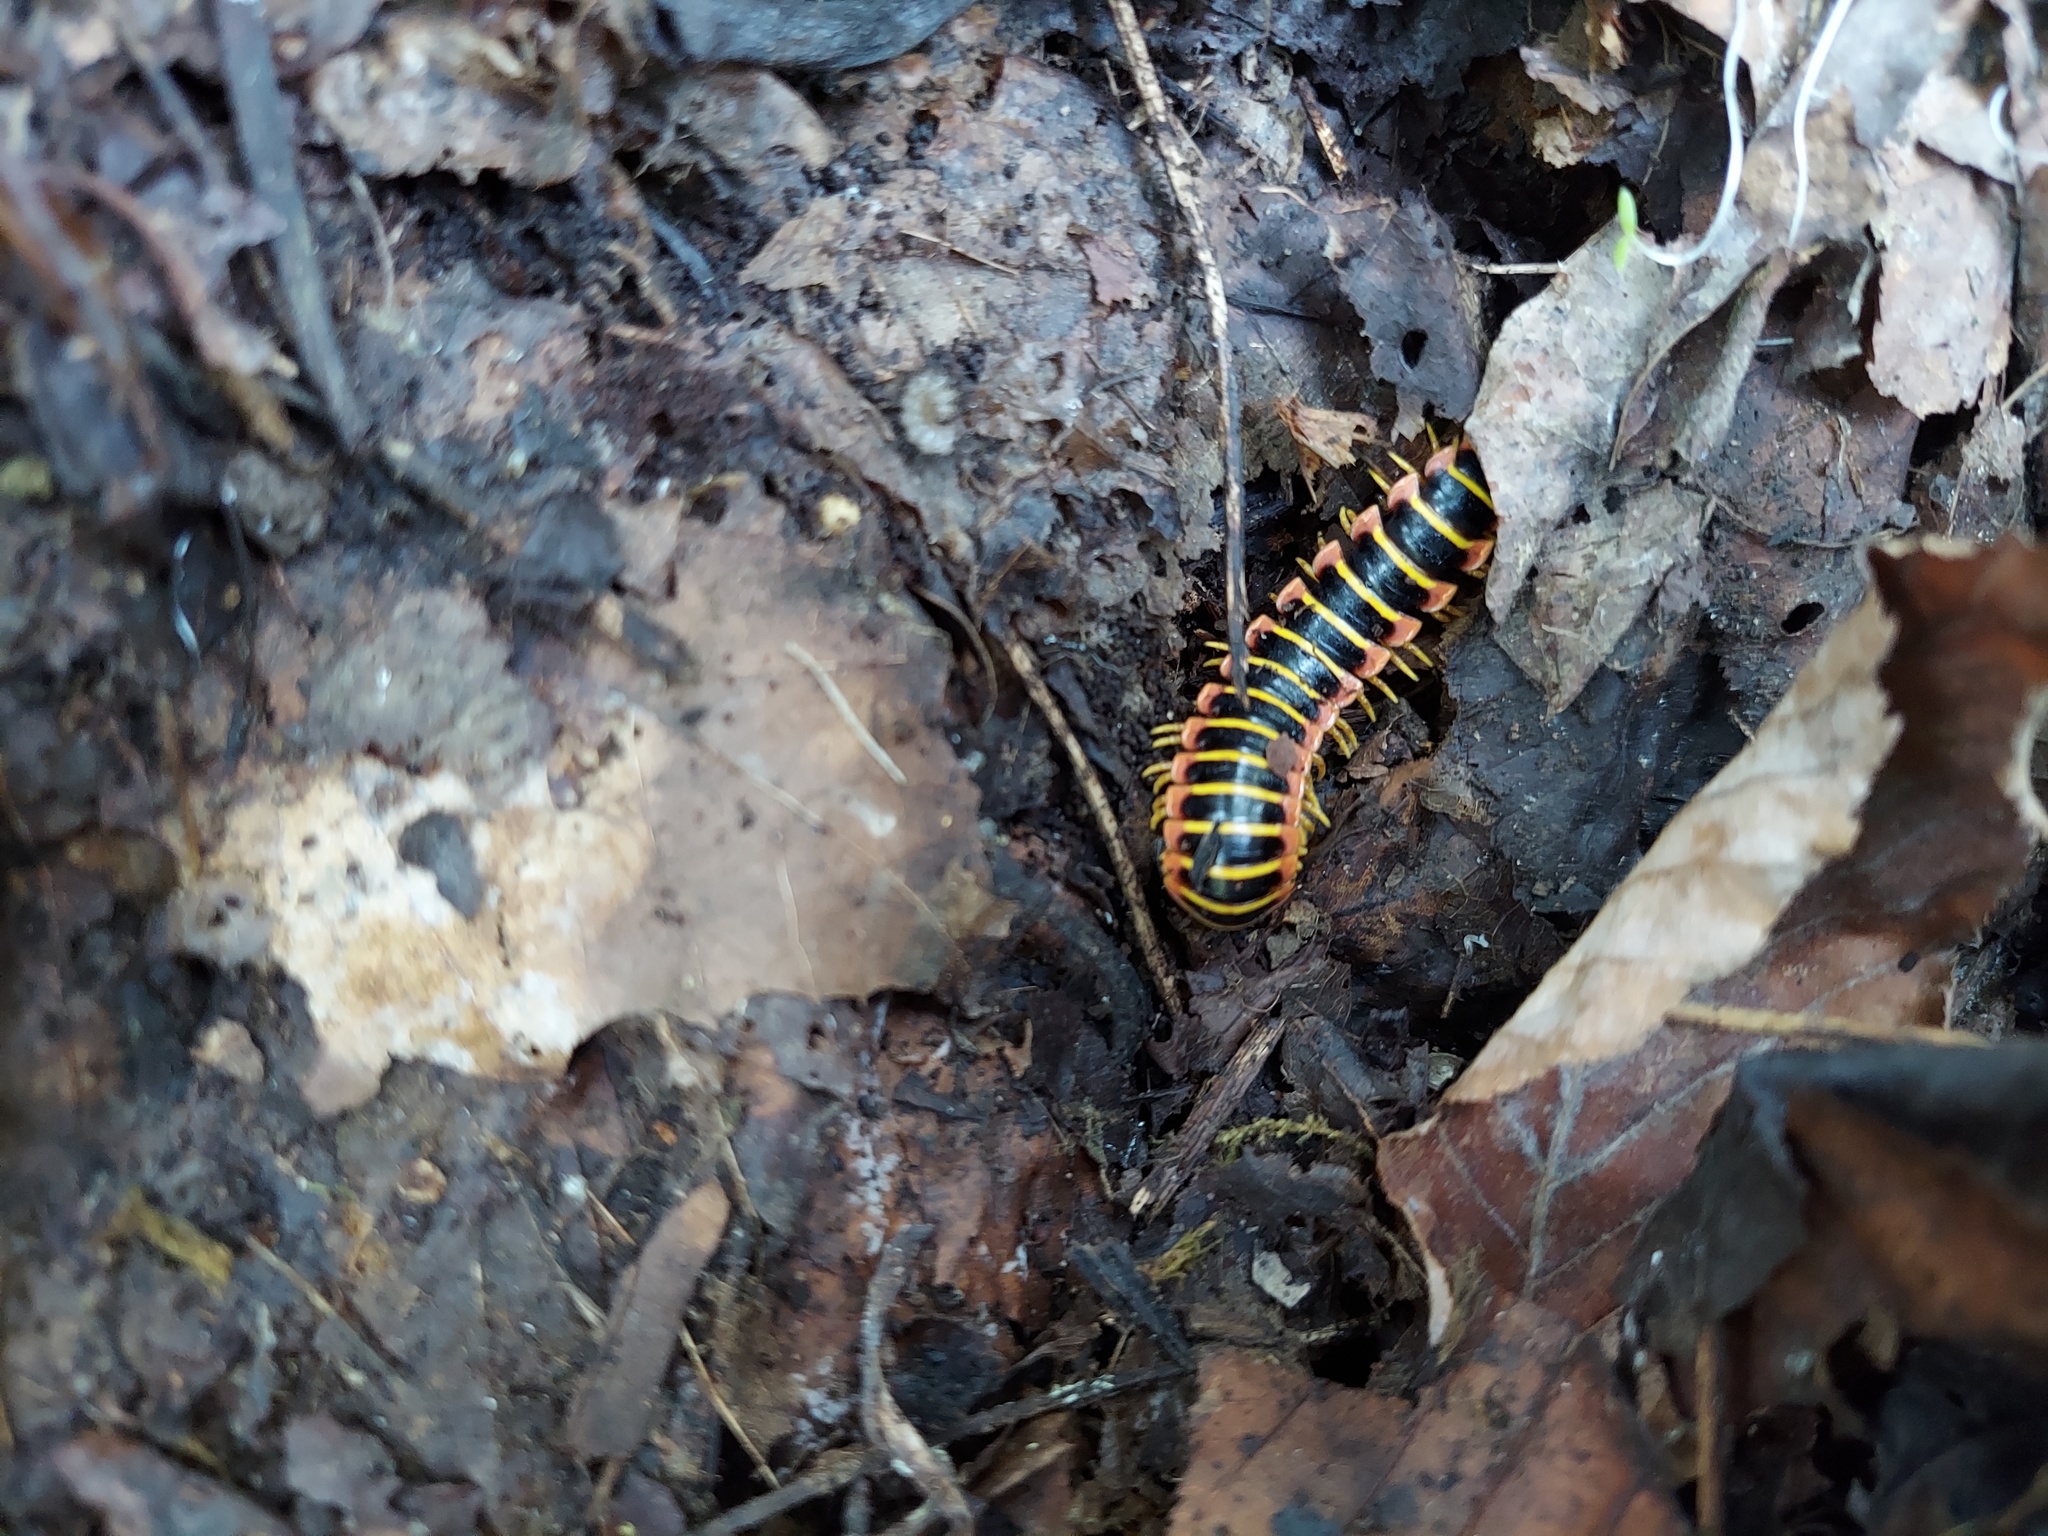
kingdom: Animalia
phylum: Arthropoda
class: Diplopoda
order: Polydesmida
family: Xystodesmidae
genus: Apheloria
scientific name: Apheloria virginiensis
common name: Black-and-gold flat millipede
